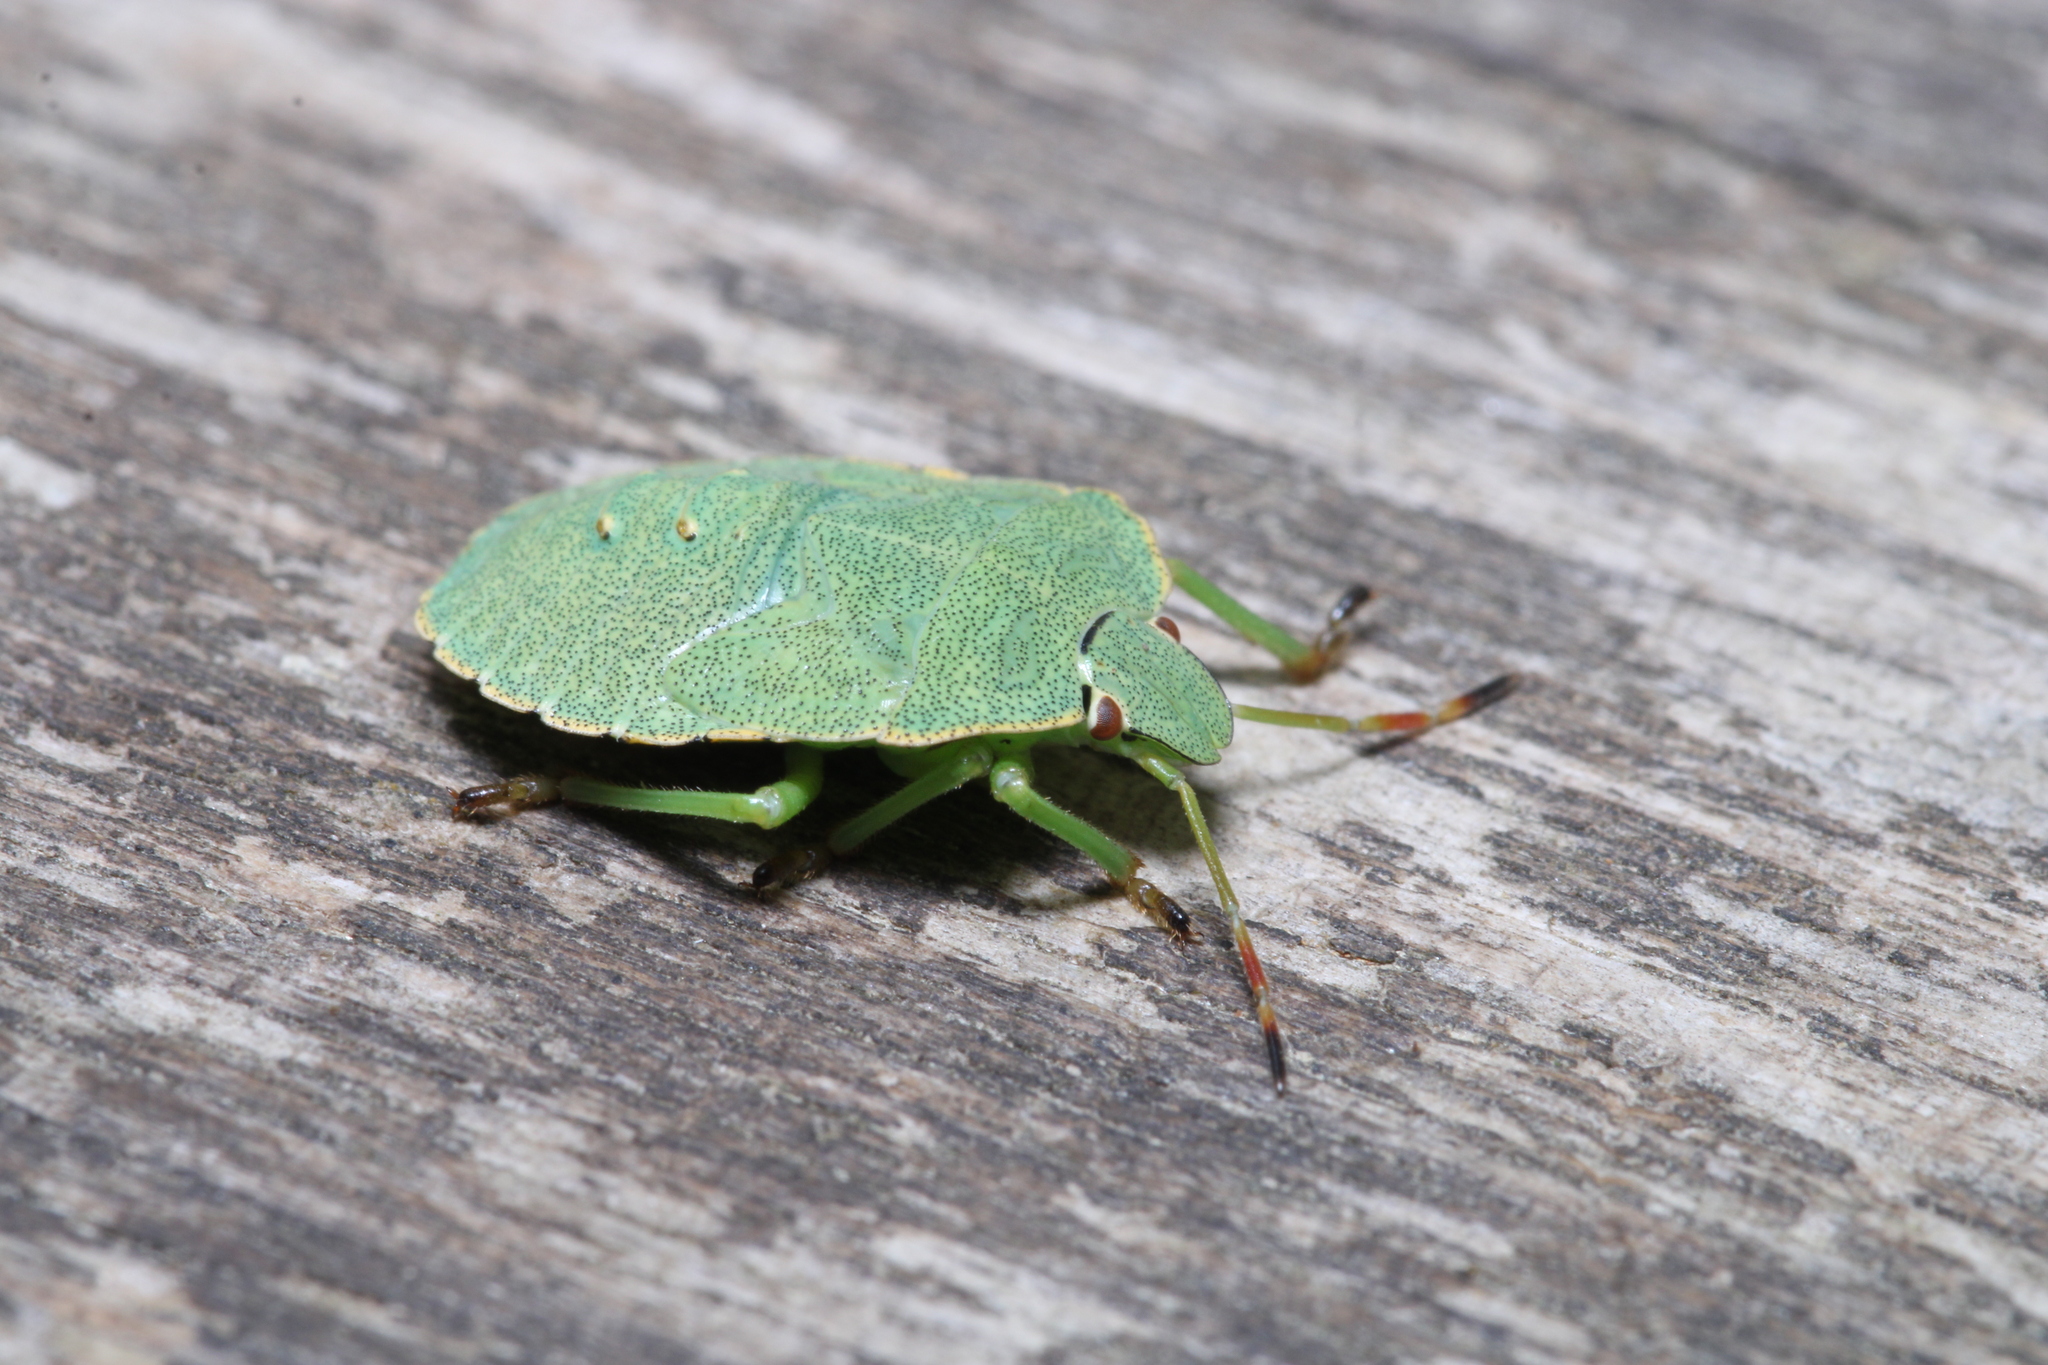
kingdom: Animalia
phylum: Arthropoda
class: Insecta
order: Hemiptera
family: Pentatomidae
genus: Palomena
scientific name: Palomena prasina
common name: Green shieldbug
